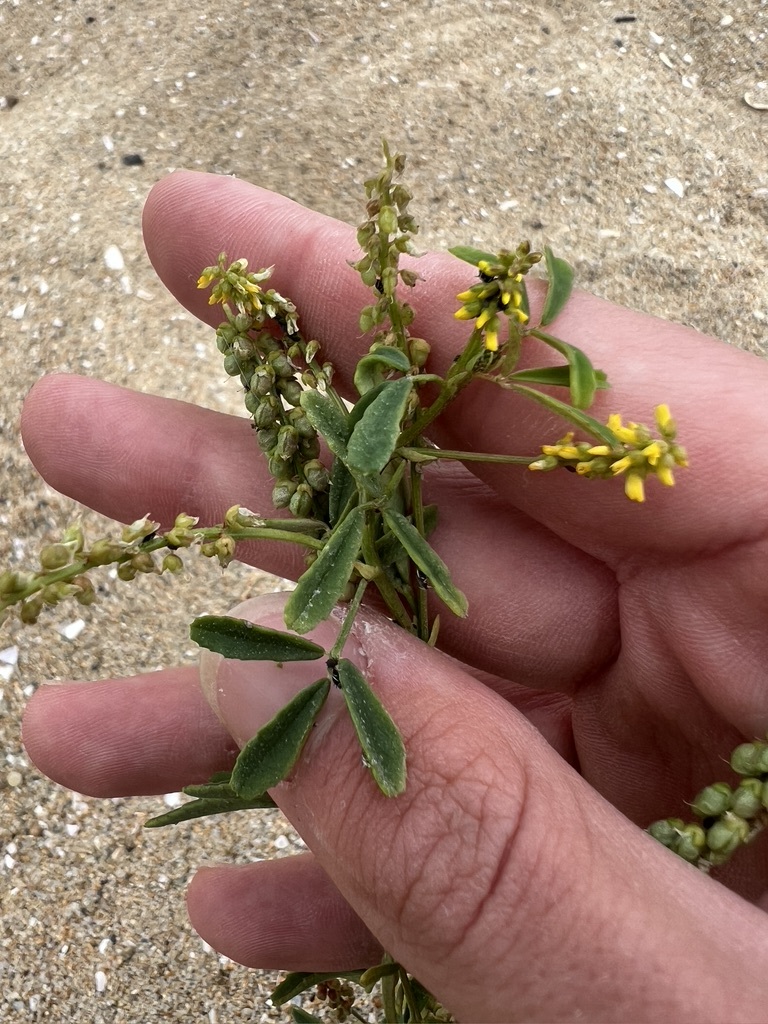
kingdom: Plantae
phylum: Tracheophyta
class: Magnoliopsida
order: Fabales
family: Fabaceae
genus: Melilotus
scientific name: Melilotus indicus
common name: Small melilot
